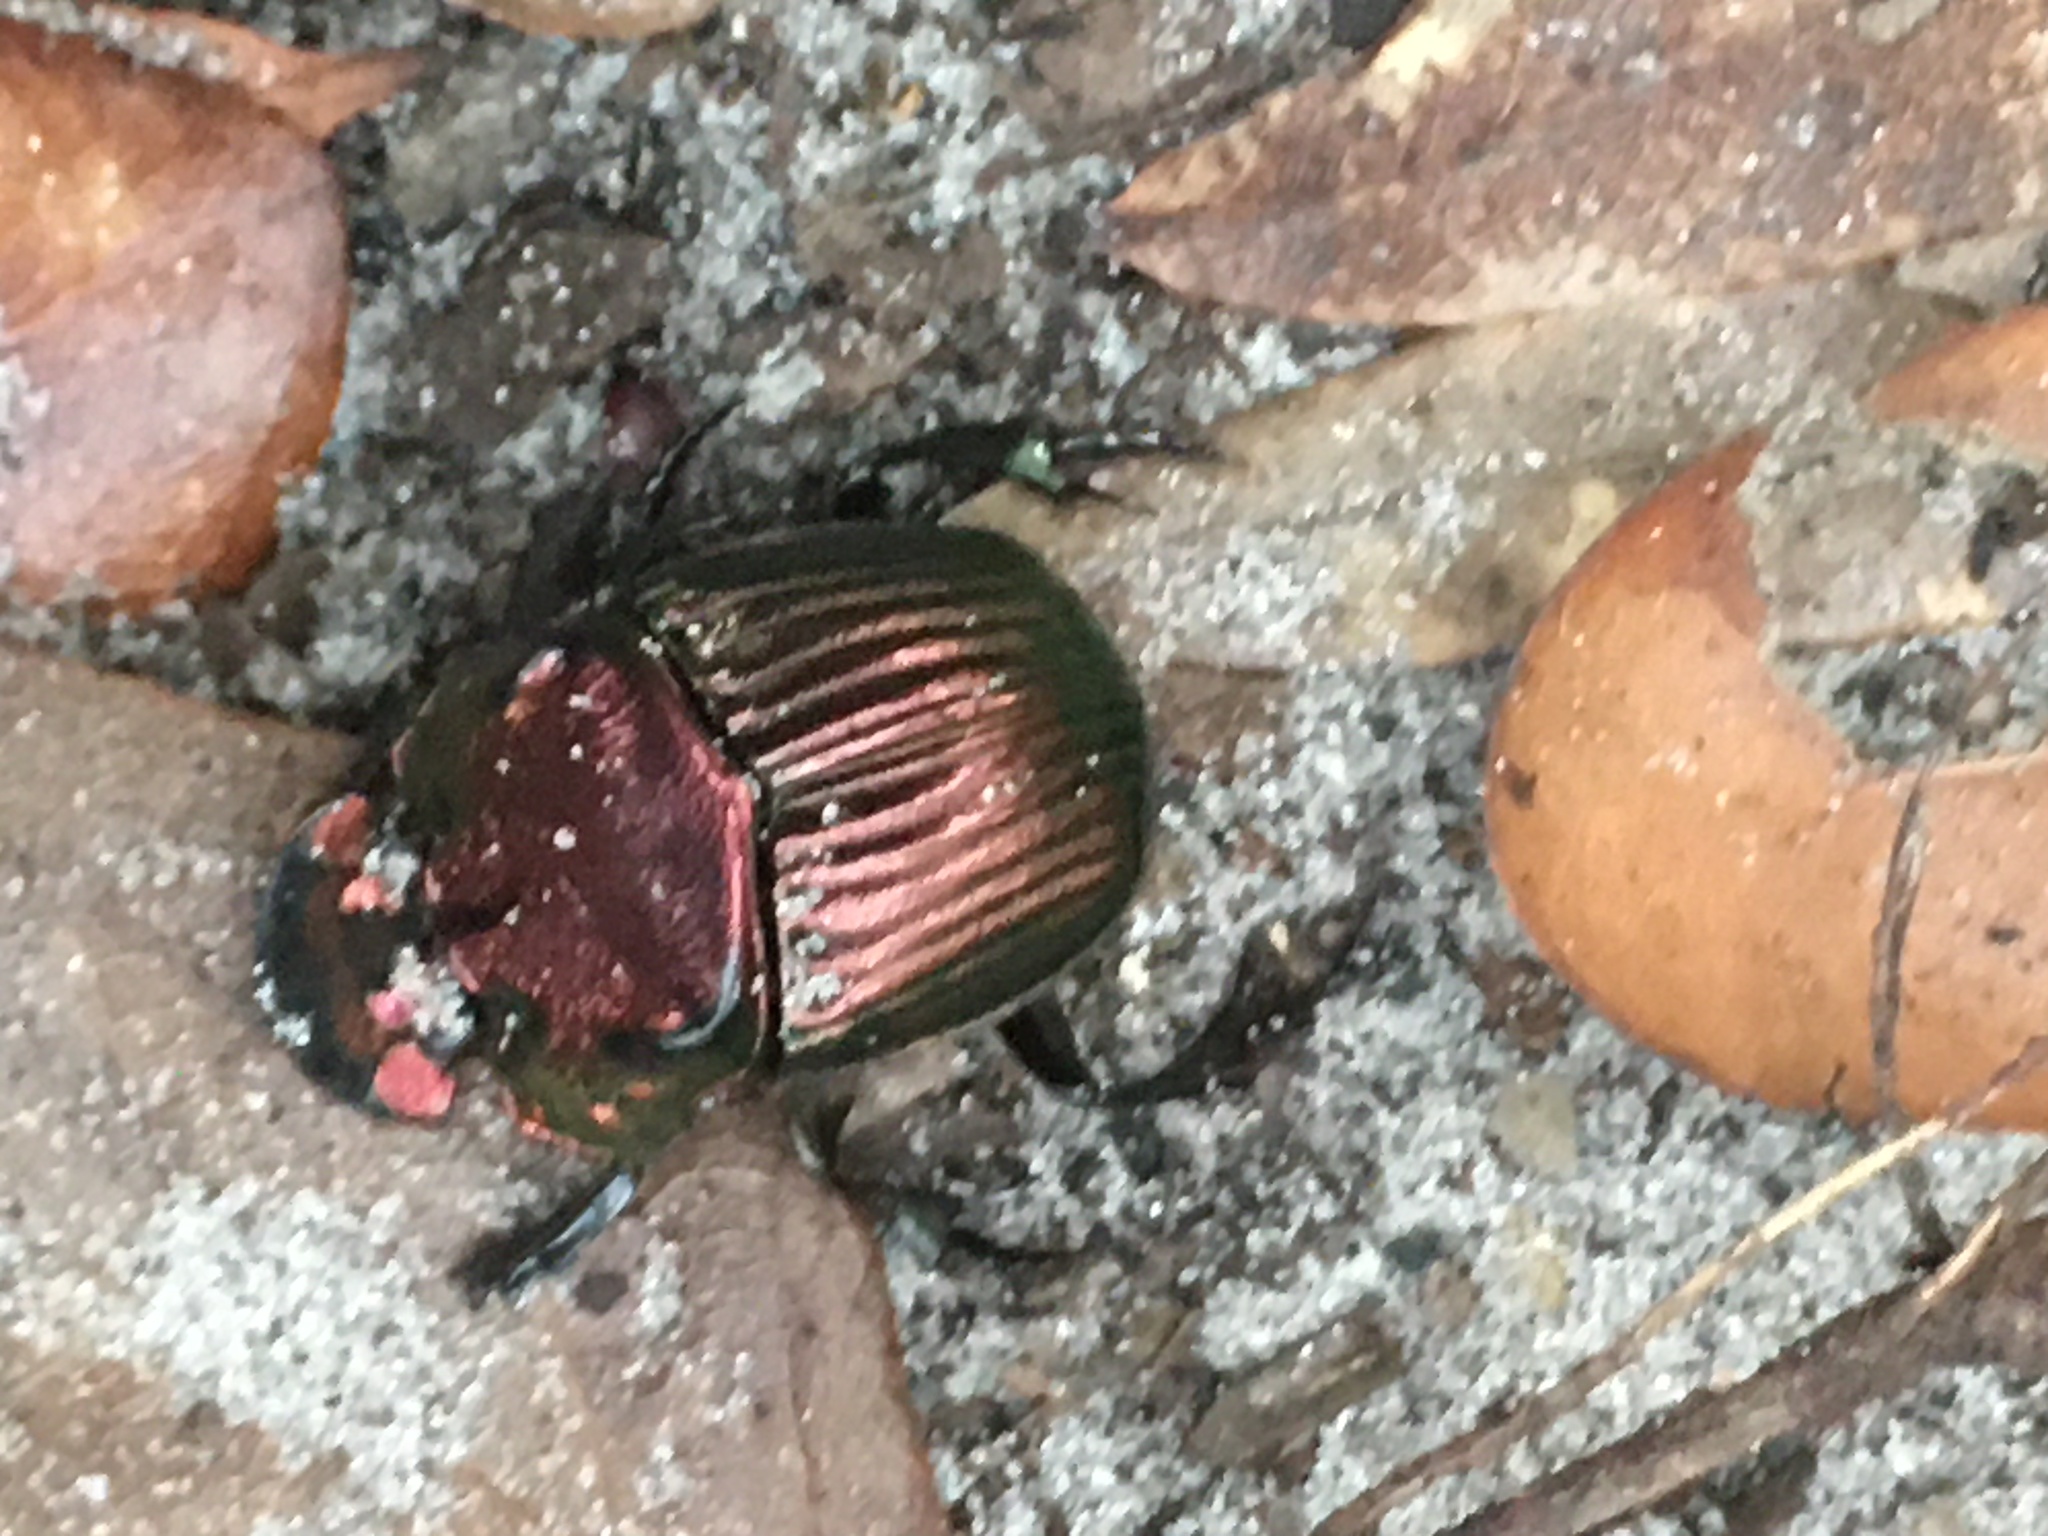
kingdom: Animalia
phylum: Arthropoda
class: Insecta
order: Coleoptera
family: Scarabaeidae
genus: Phanaeus
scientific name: Phanaeus igneus
